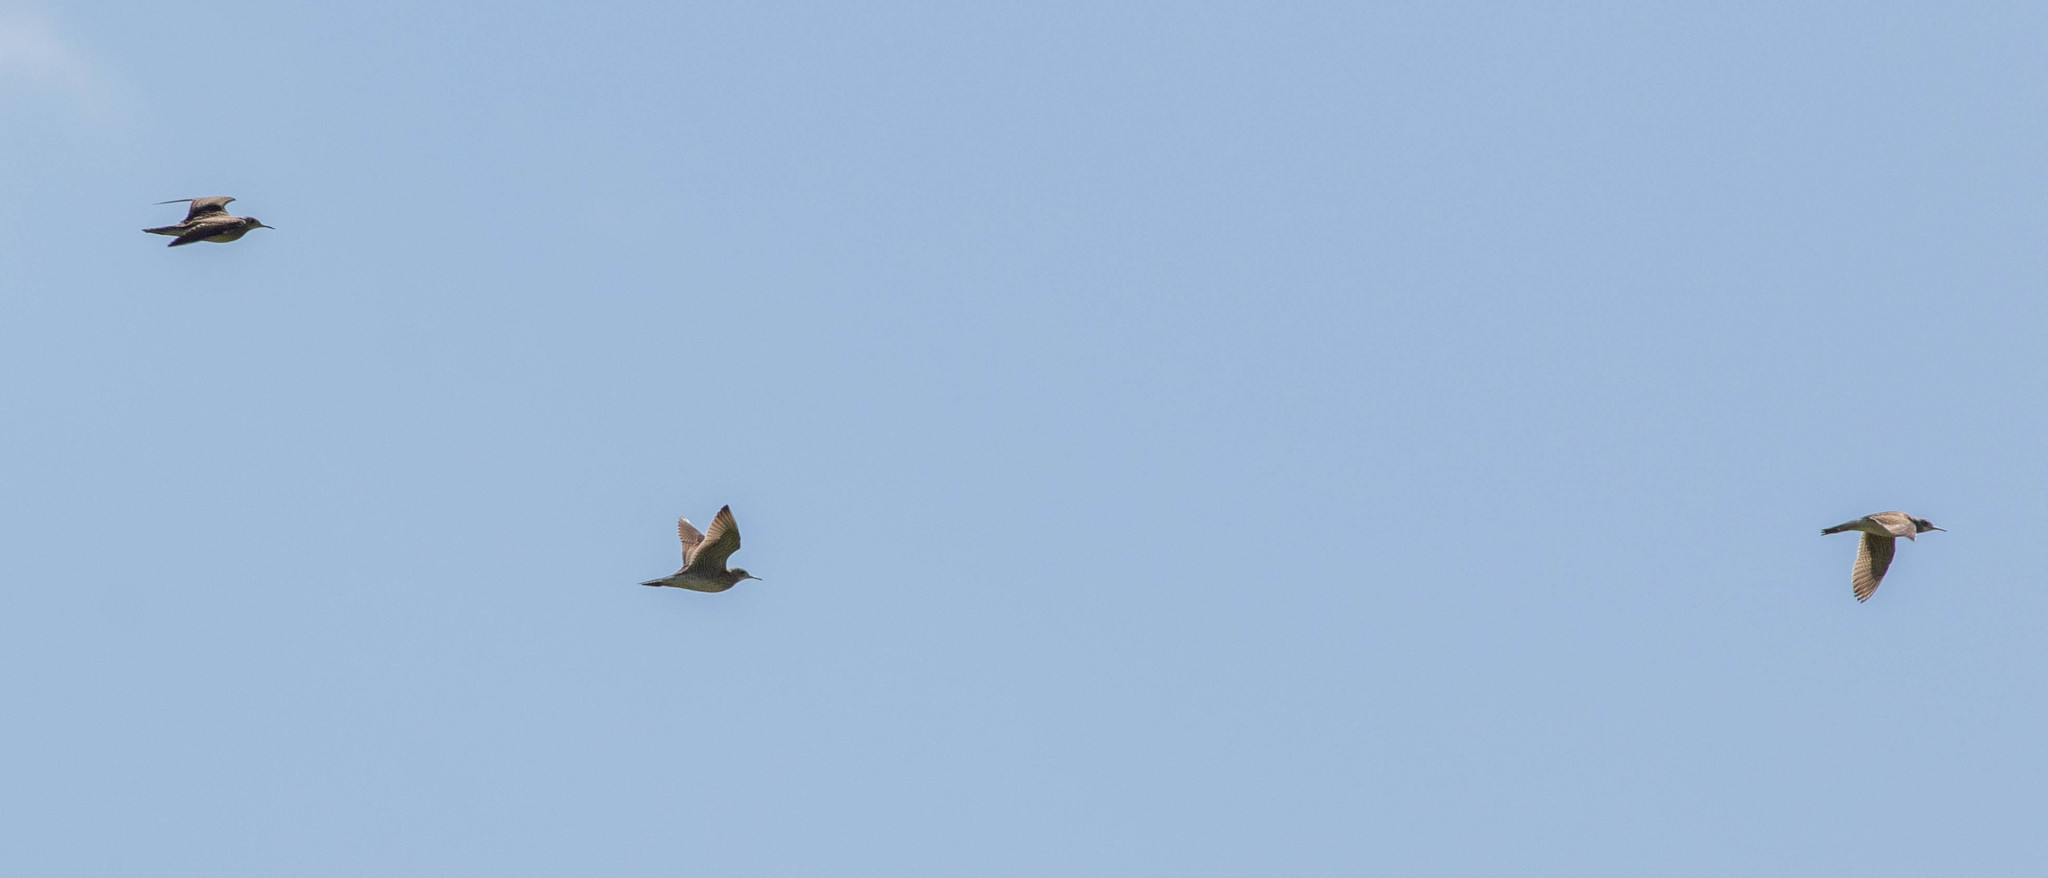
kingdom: Animalia
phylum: Chordata
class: Aves
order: Charadriiformes
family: Scolopacidae
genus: Bartramia
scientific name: Bartramia longicauda
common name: Upland sandpiper
